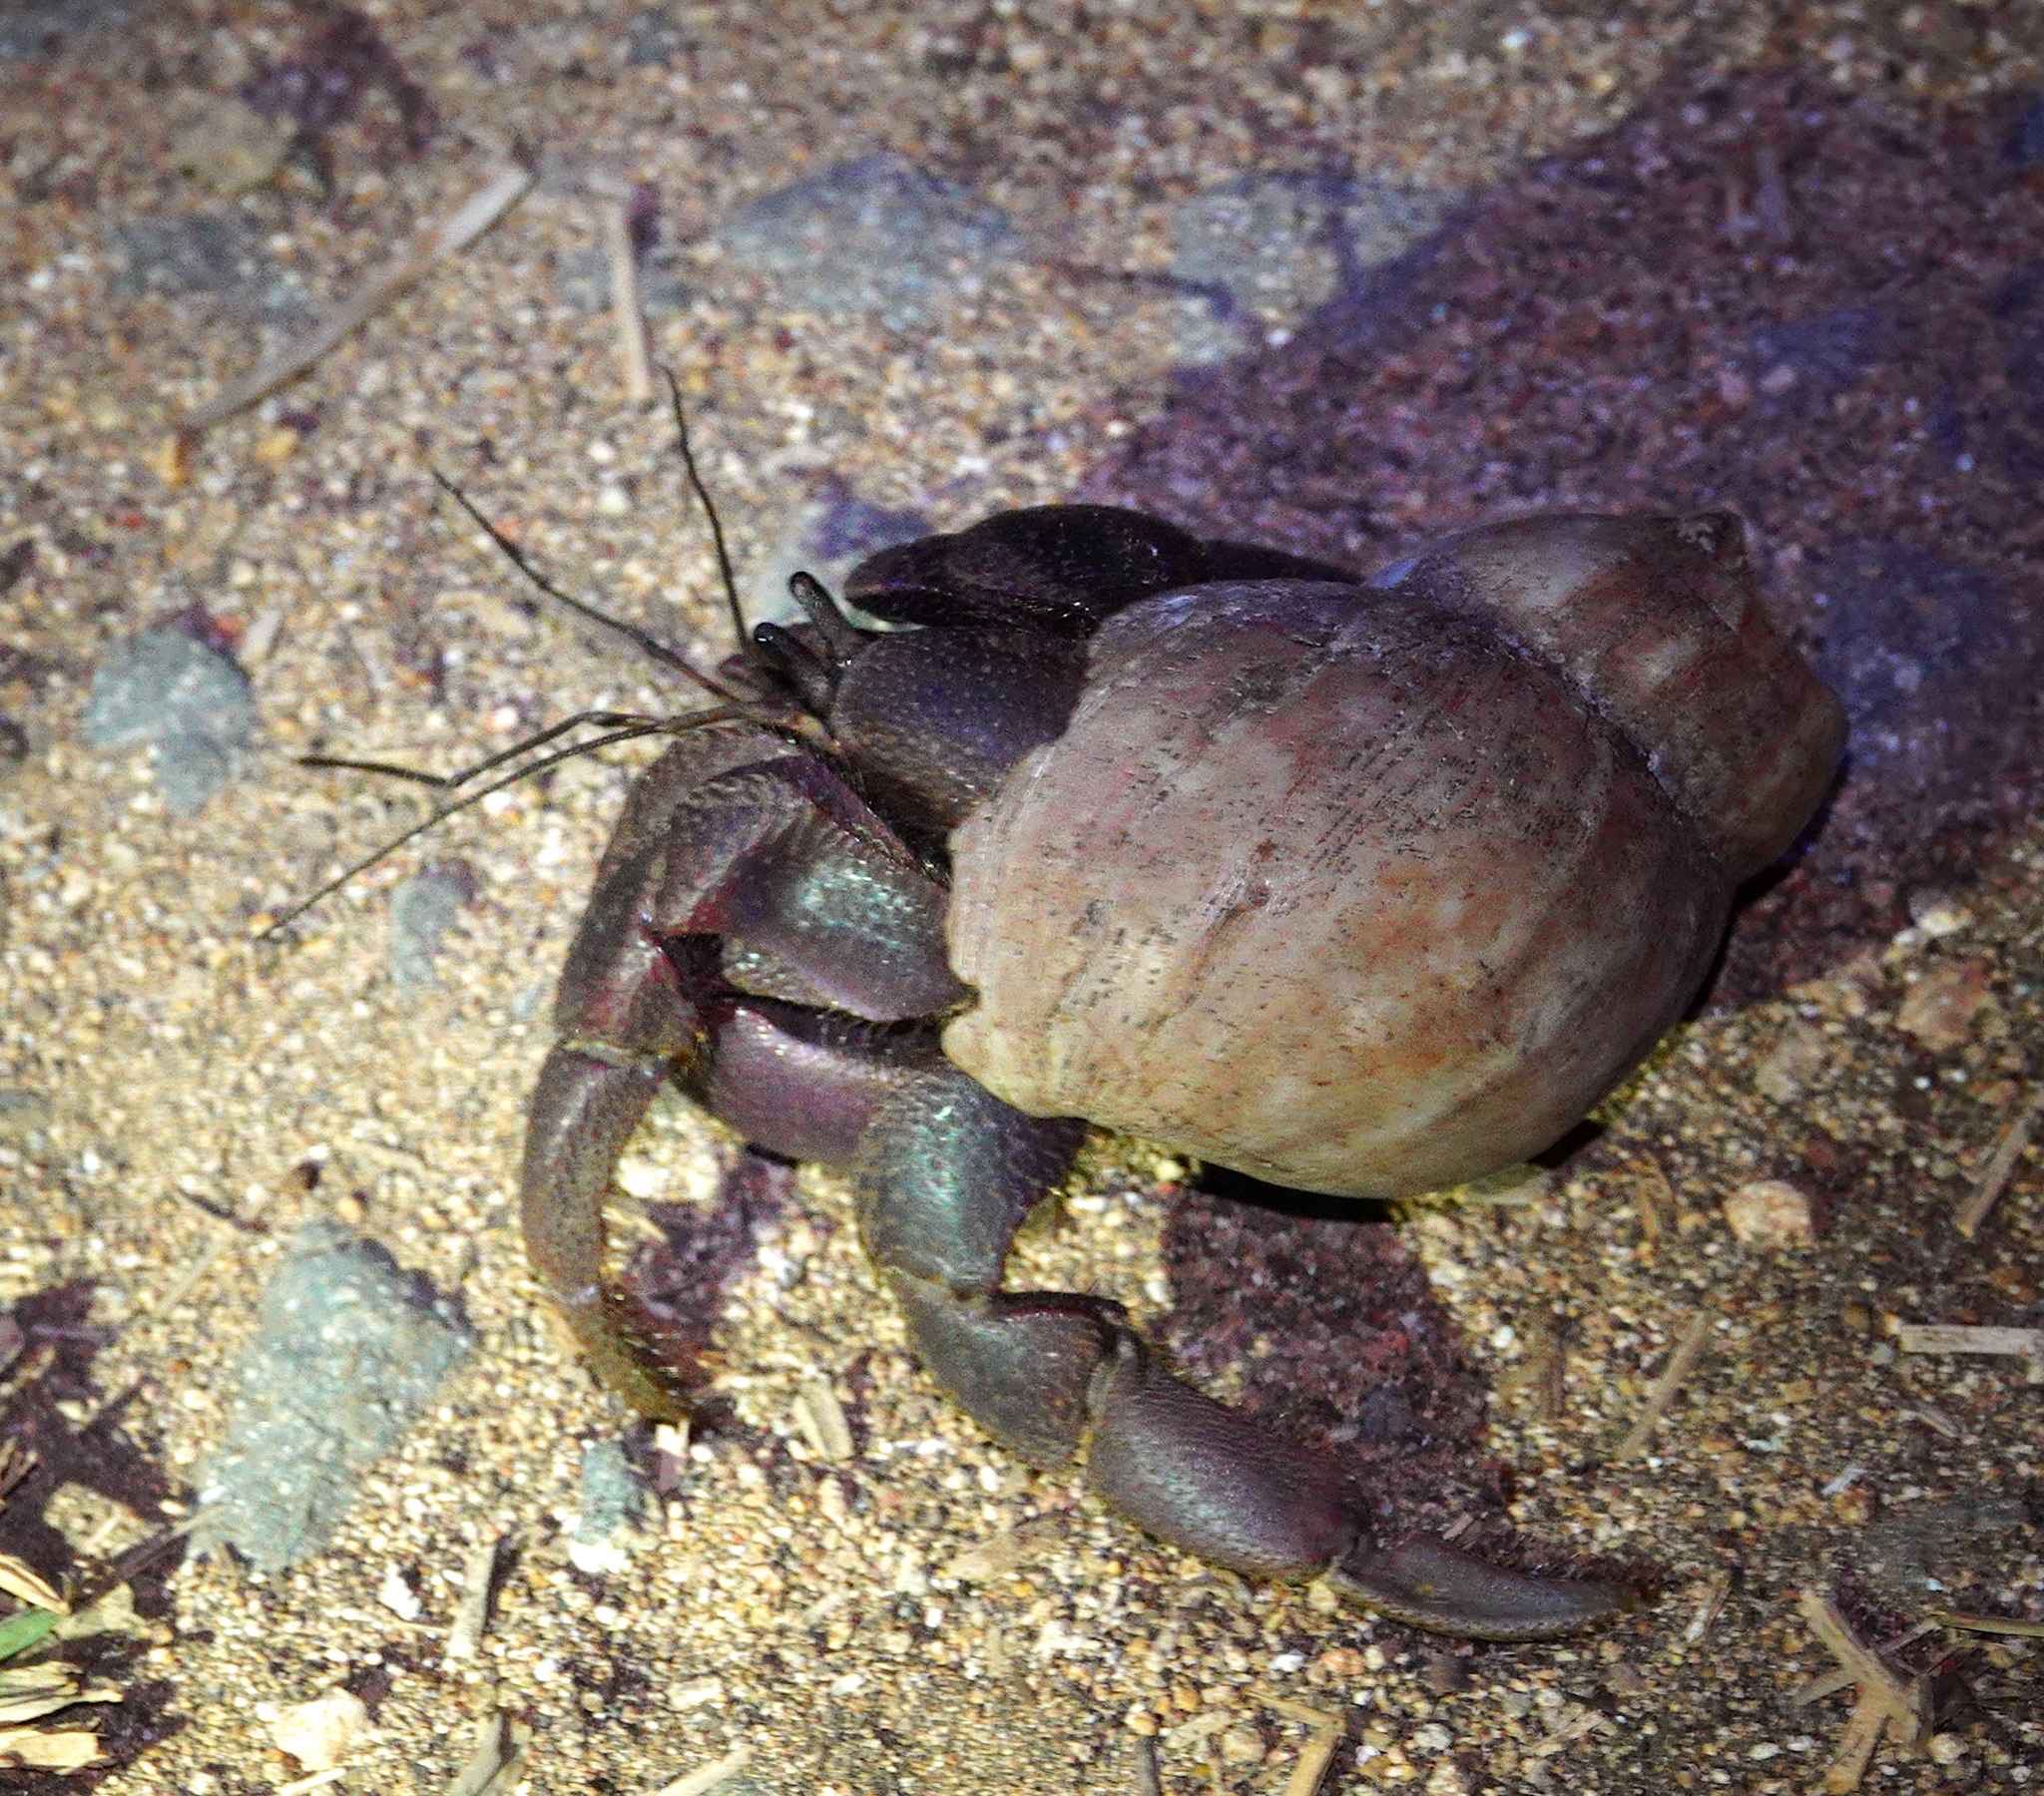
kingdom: Animalia
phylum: Arthropoda
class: Malacostraca
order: Decapoda
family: Coenobitidae
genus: Coenobita
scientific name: Coenobita brevimanus
